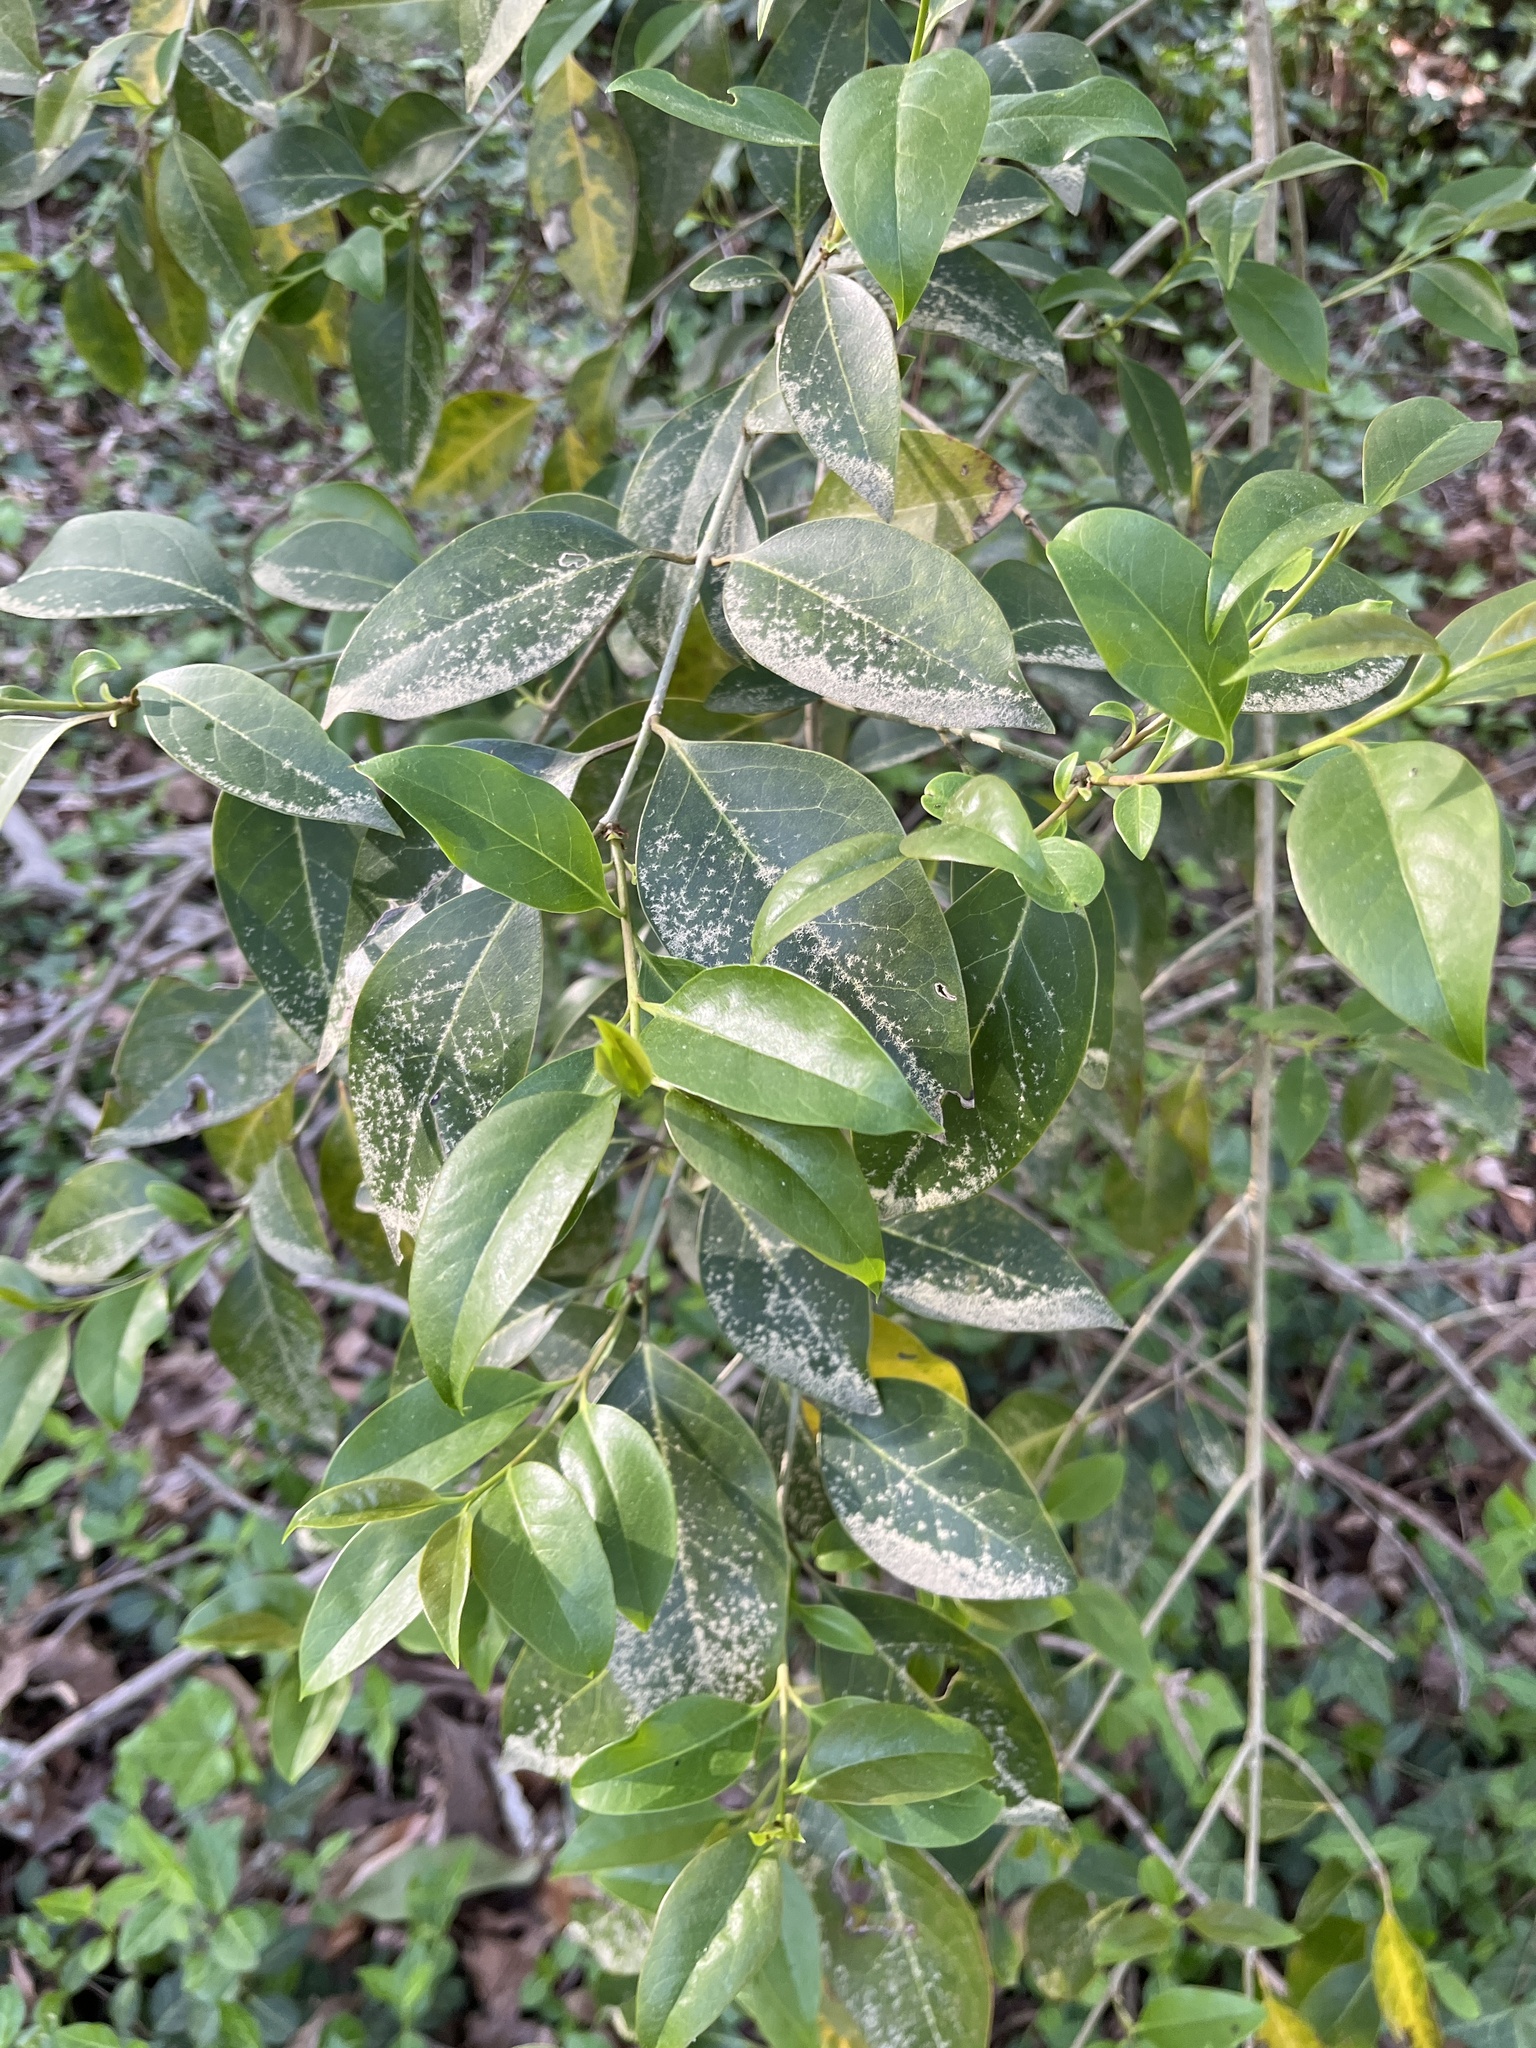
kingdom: Plantae
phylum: Tracheophyta
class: Magnoliopsida
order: Lamiales
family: Oleaceae
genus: Ligustrum
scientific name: Ligustrum lucidum
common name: Glossy privet
